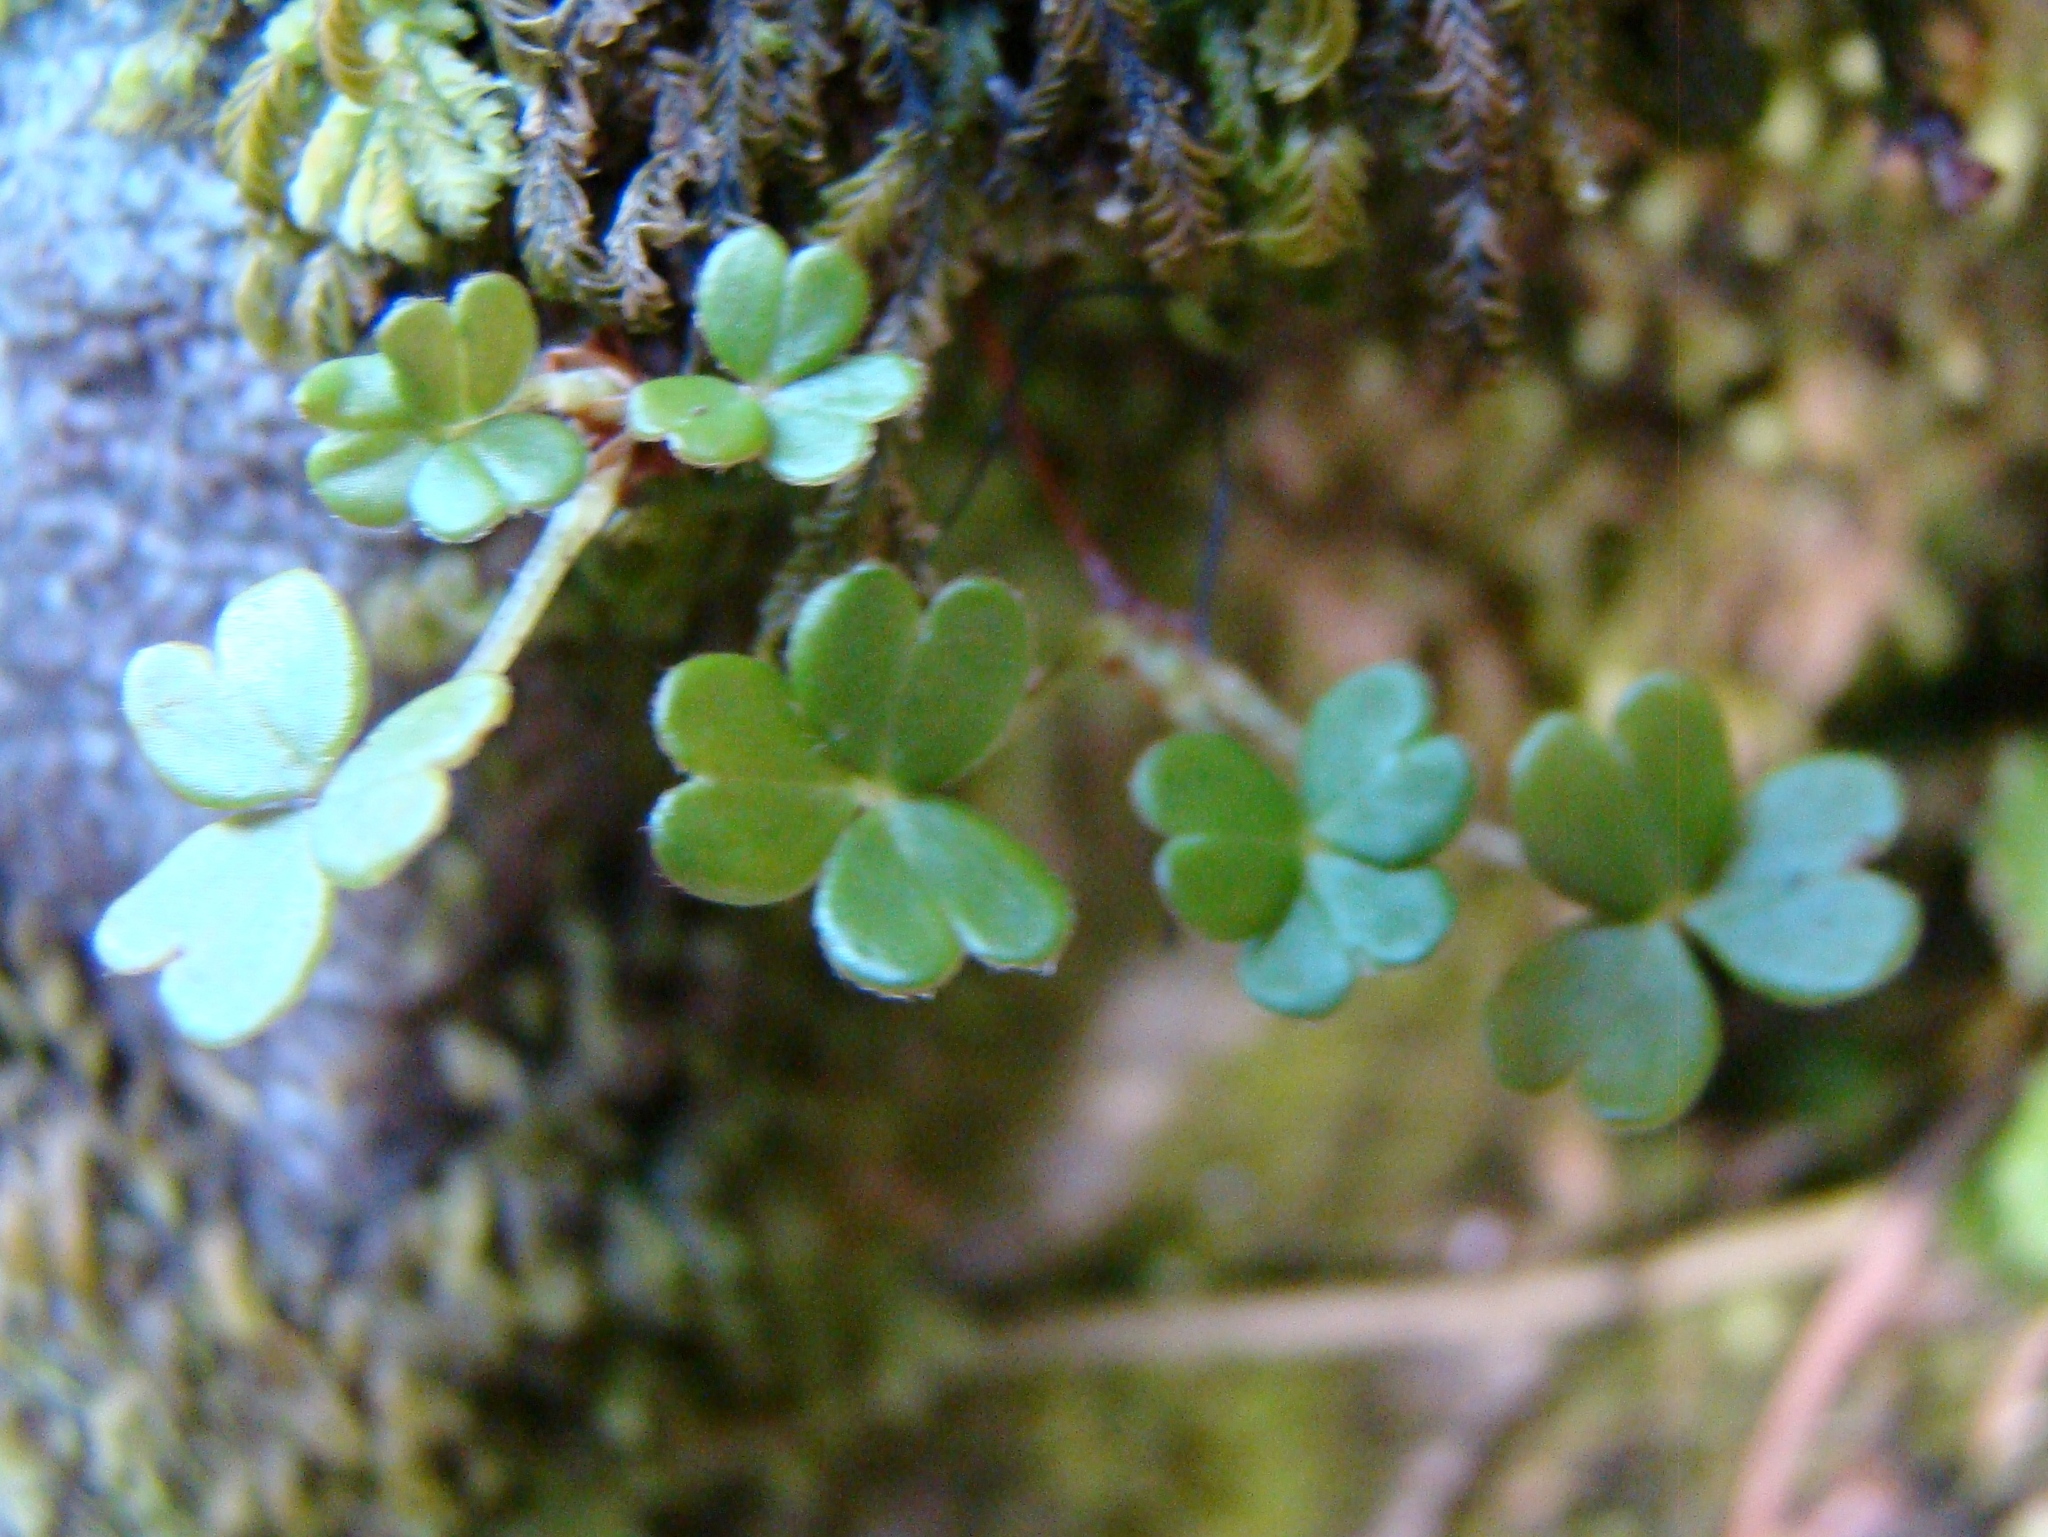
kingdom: Plantae
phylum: Tracheophyta
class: Magnoliopsida
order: Oxalidales
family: Oxalidaceae
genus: Oxalis
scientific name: Oxalis magellanica
